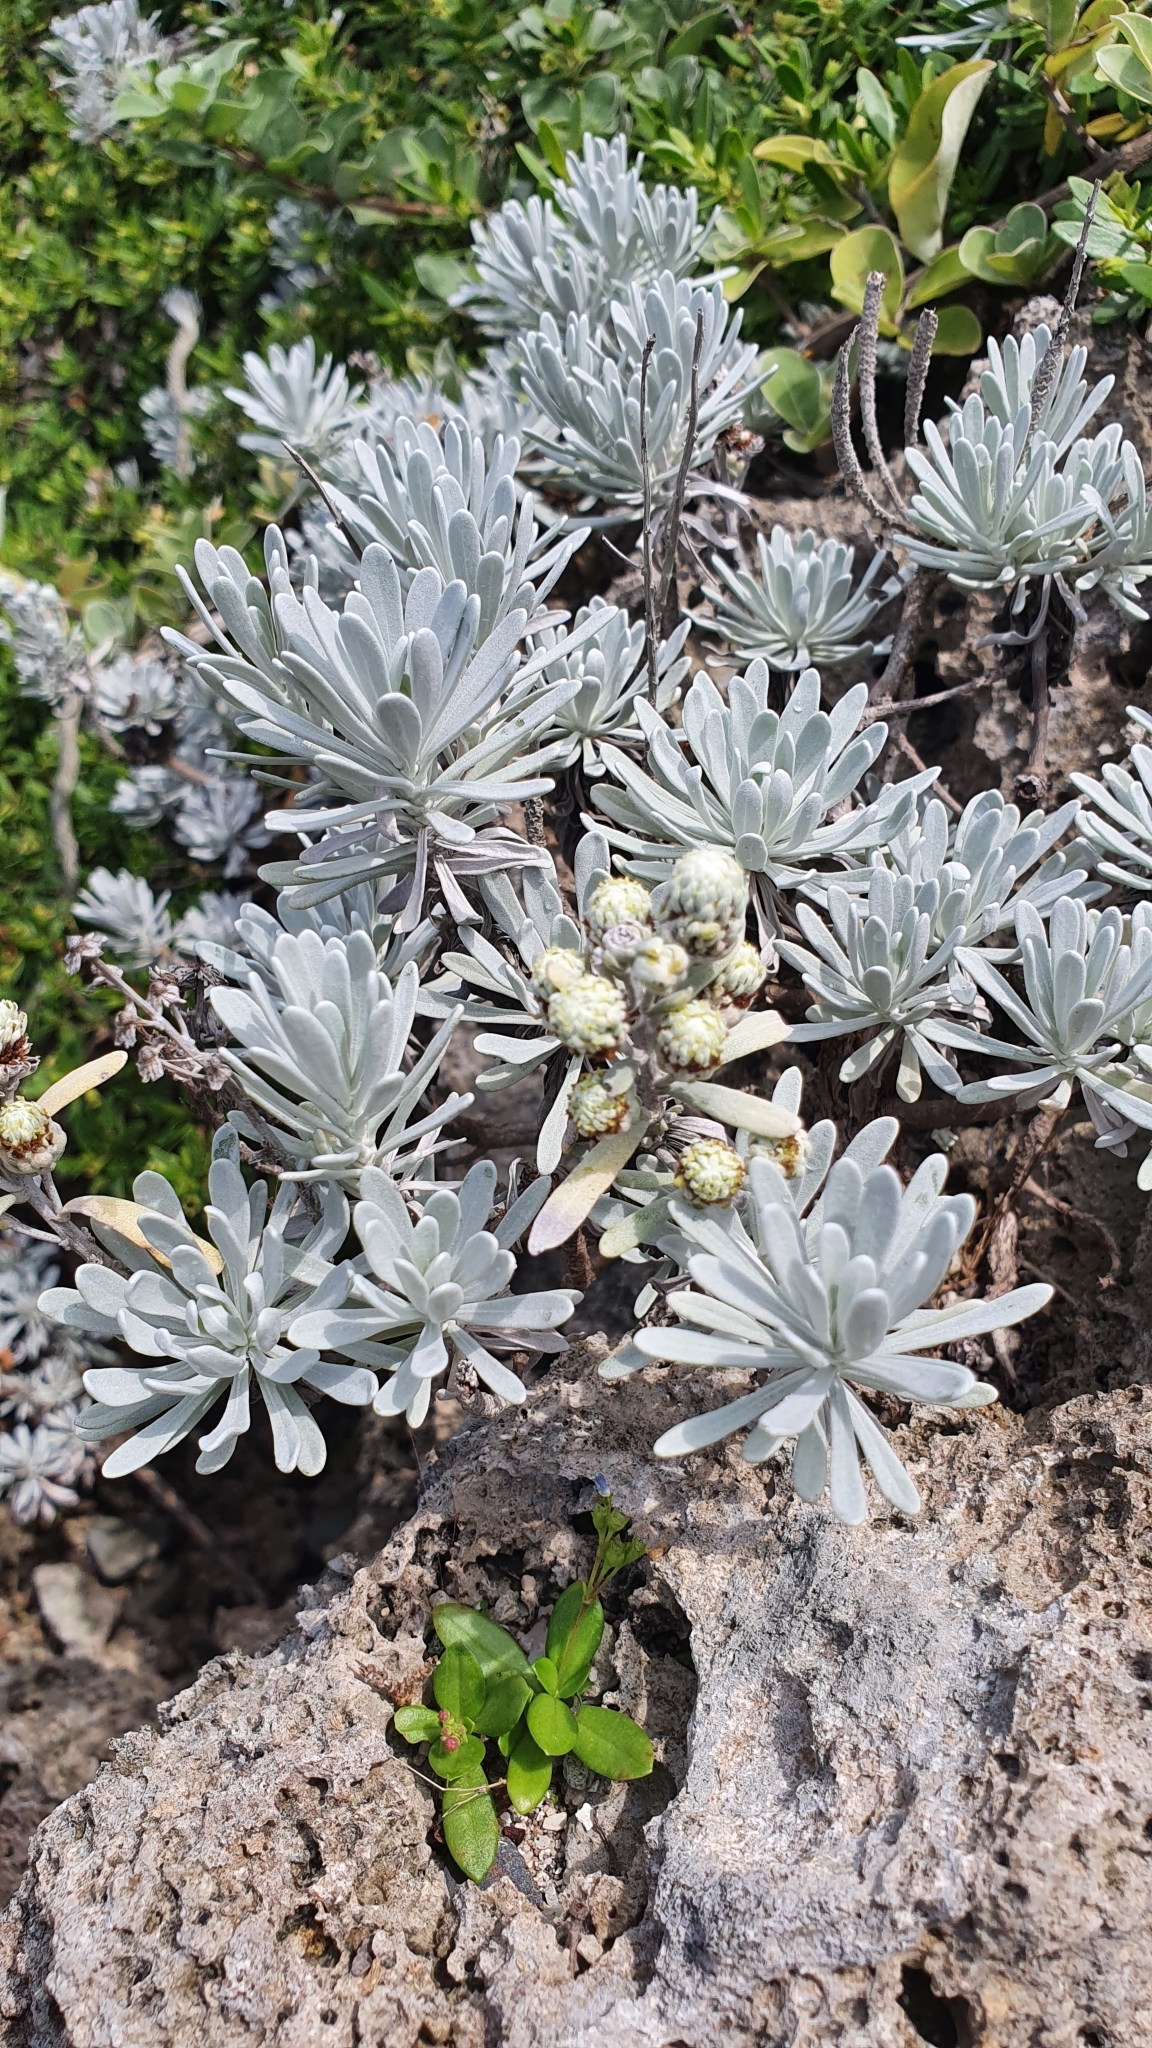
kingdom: Plantae
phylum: Tracheophyta
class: Magnoliopsida
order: Asterales
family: Asteraceae
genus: Crossostephium
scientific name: Crossostephium chinense
